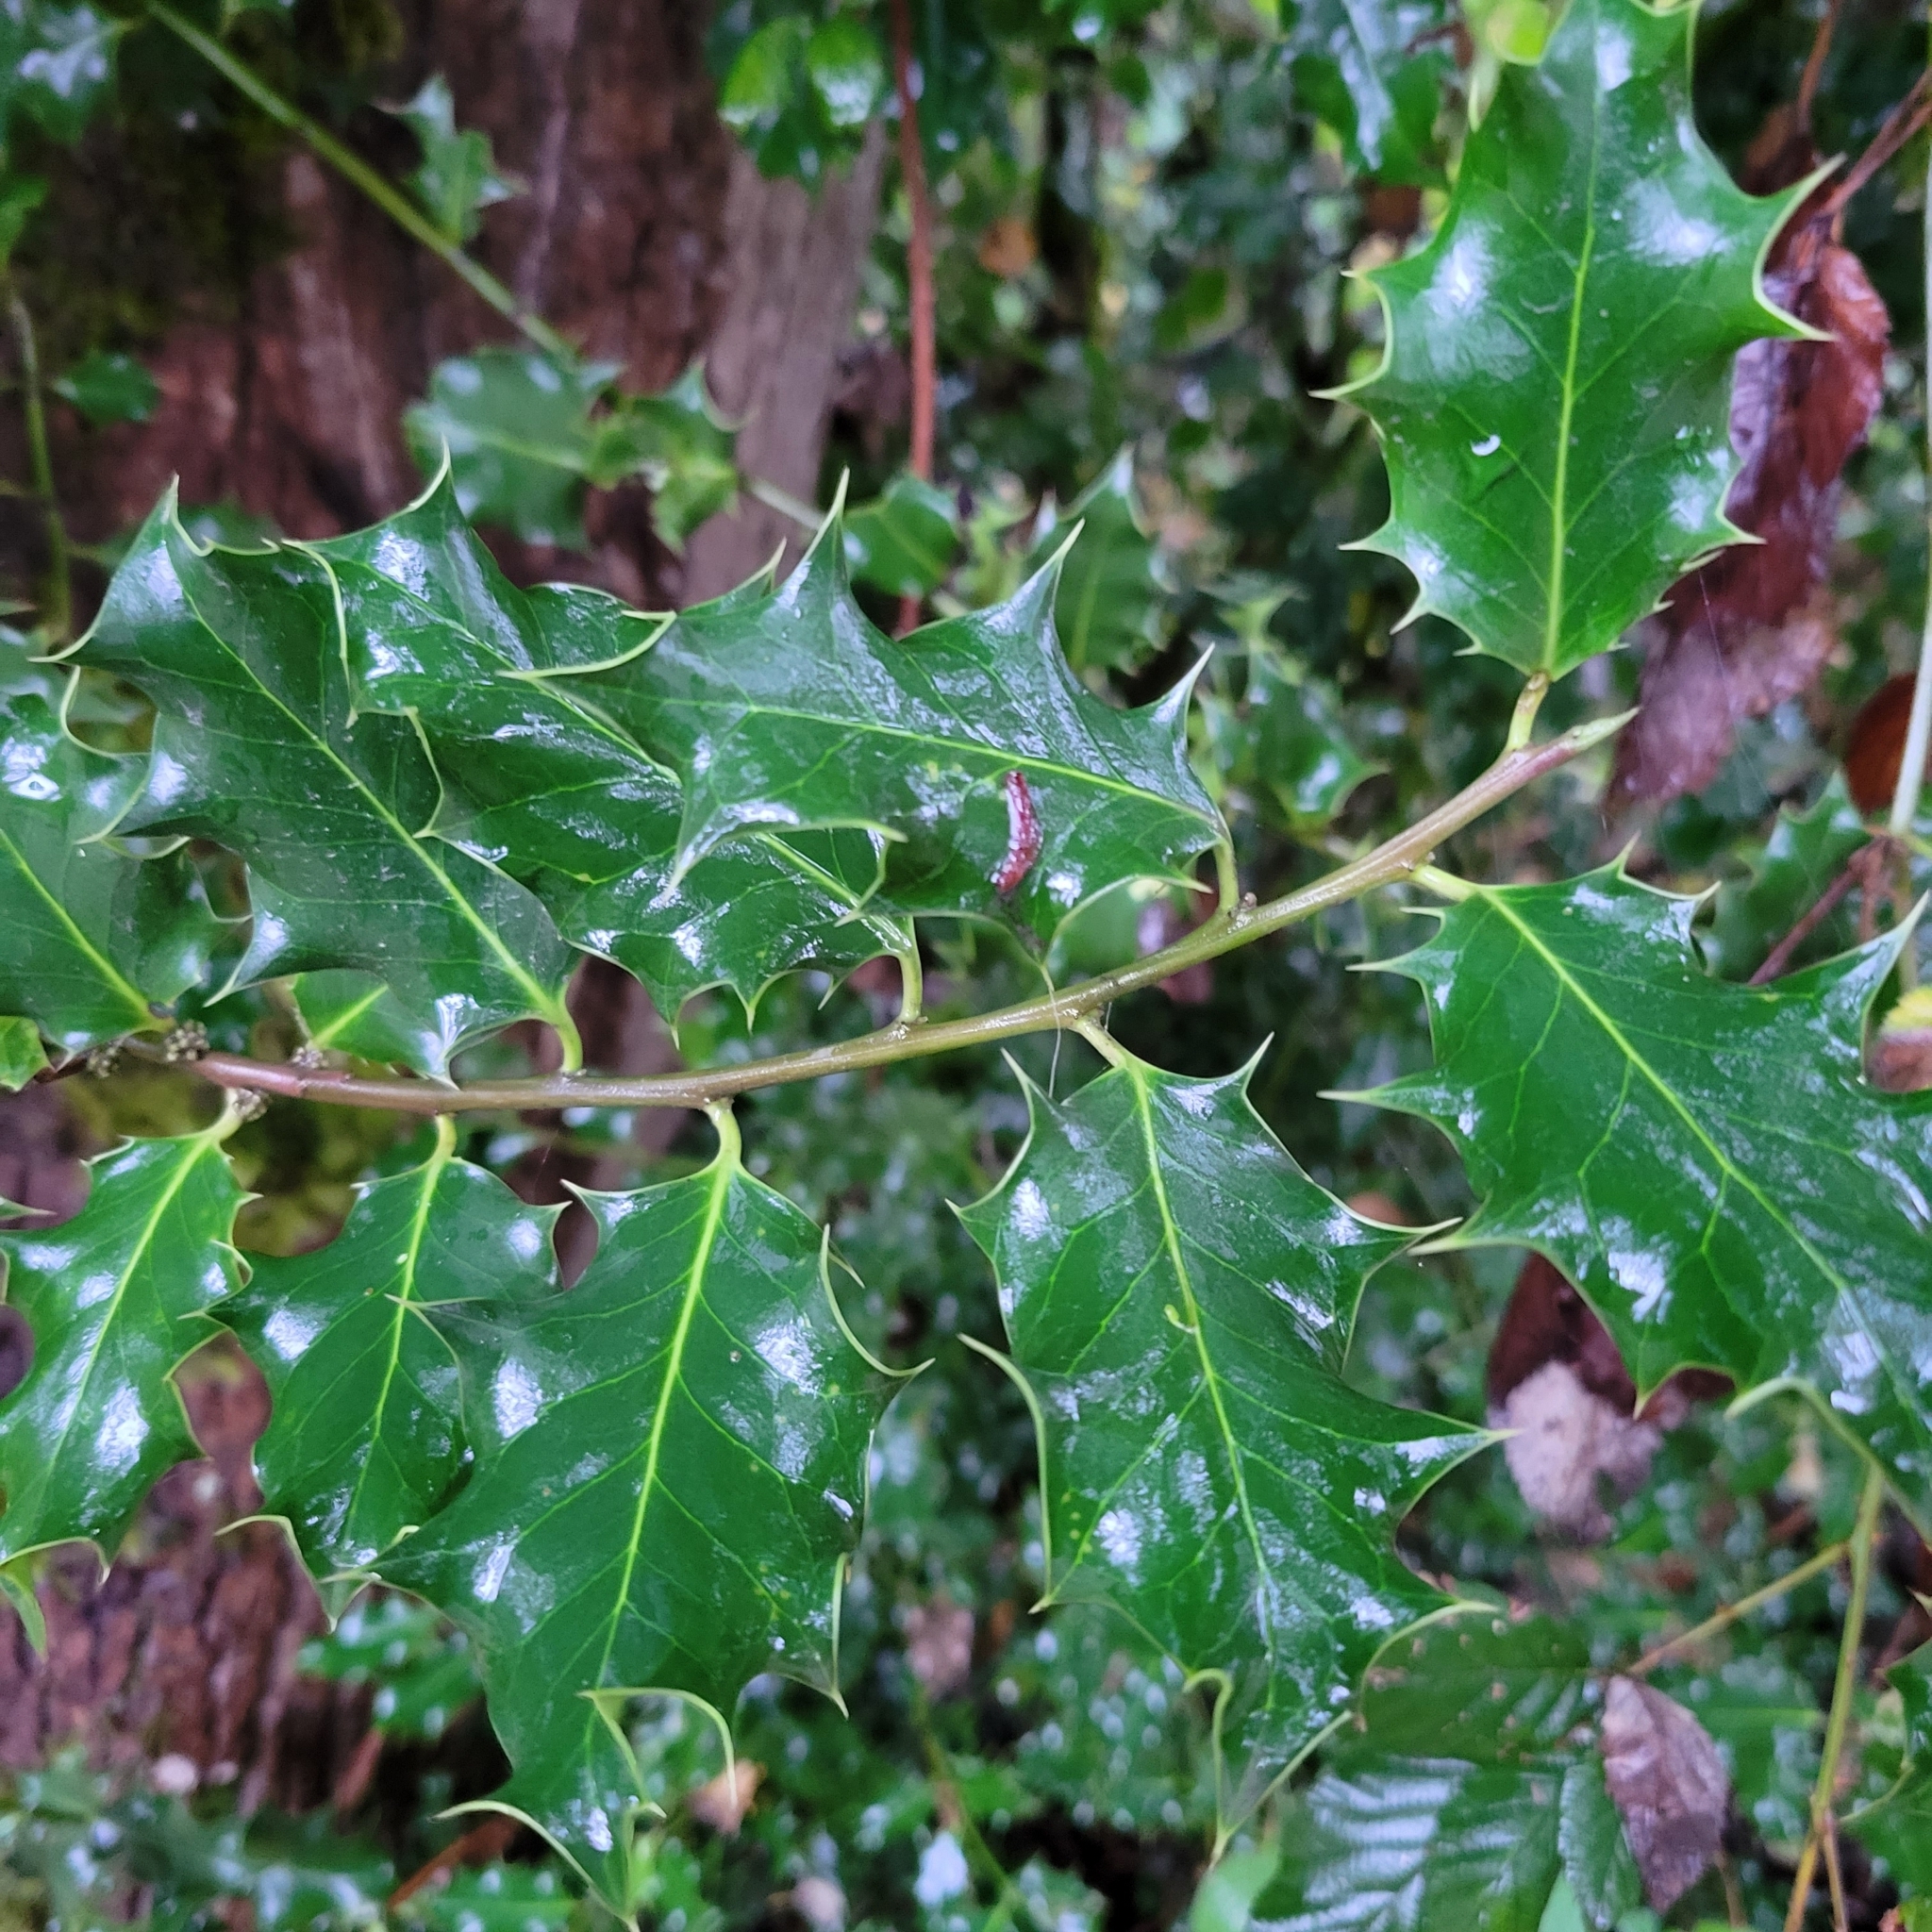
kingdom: Plantae
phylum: Tracheophyta
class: Magnoliopsida
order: Aquifoliales
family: Aquifoliaceae
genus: Ilex
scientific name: Ilex aquifolium
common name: English holly
